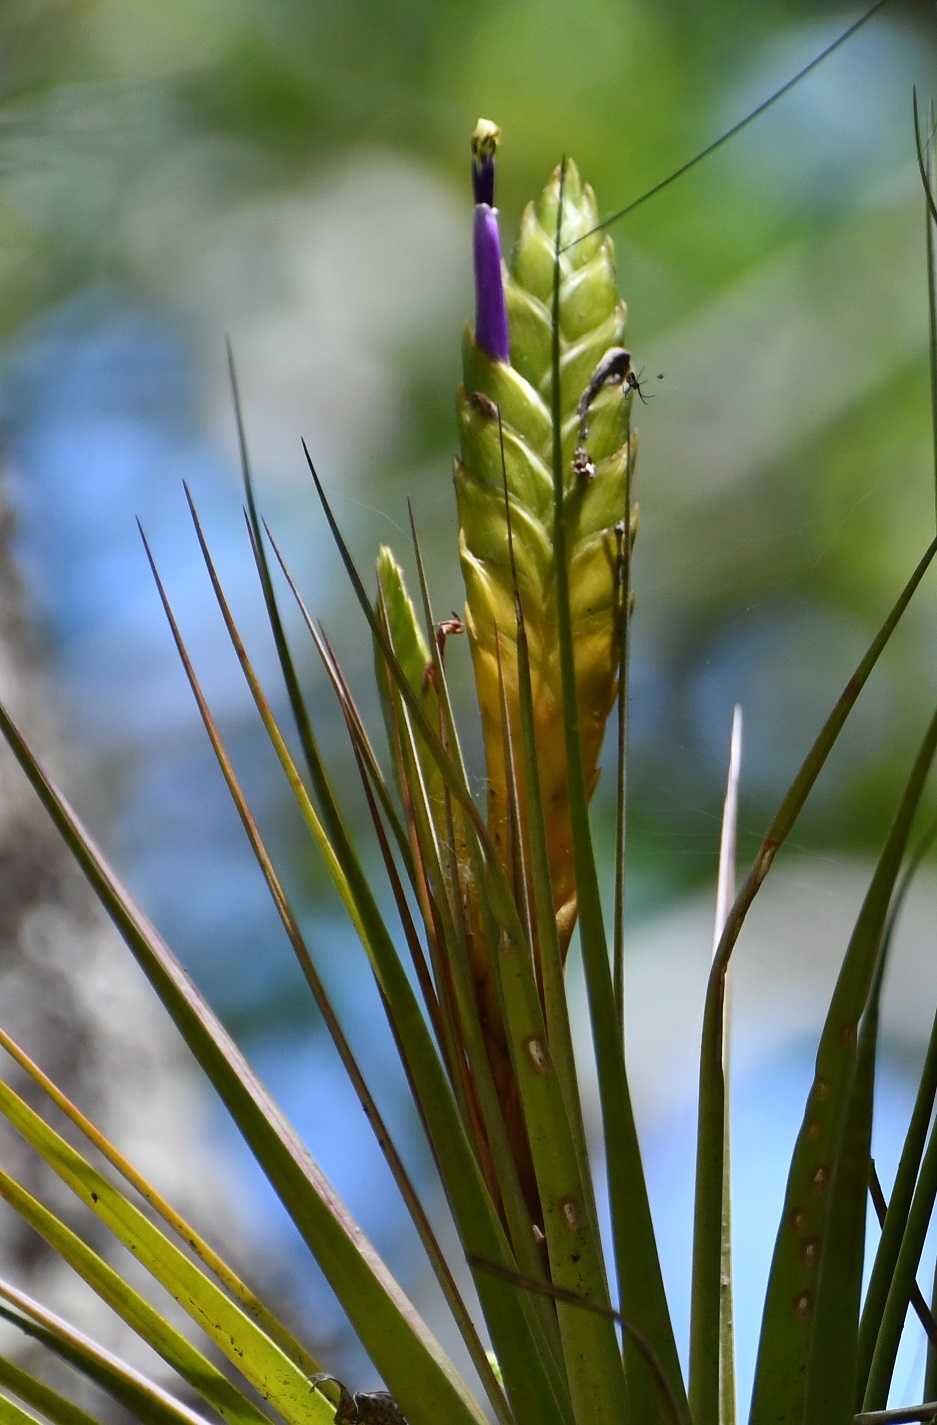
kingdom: Plantae
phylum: Tracheophyta
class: Liliopsida
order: Poales
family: Bromeliaceae
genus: Tillandsia
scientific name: Tillandsia compressa
